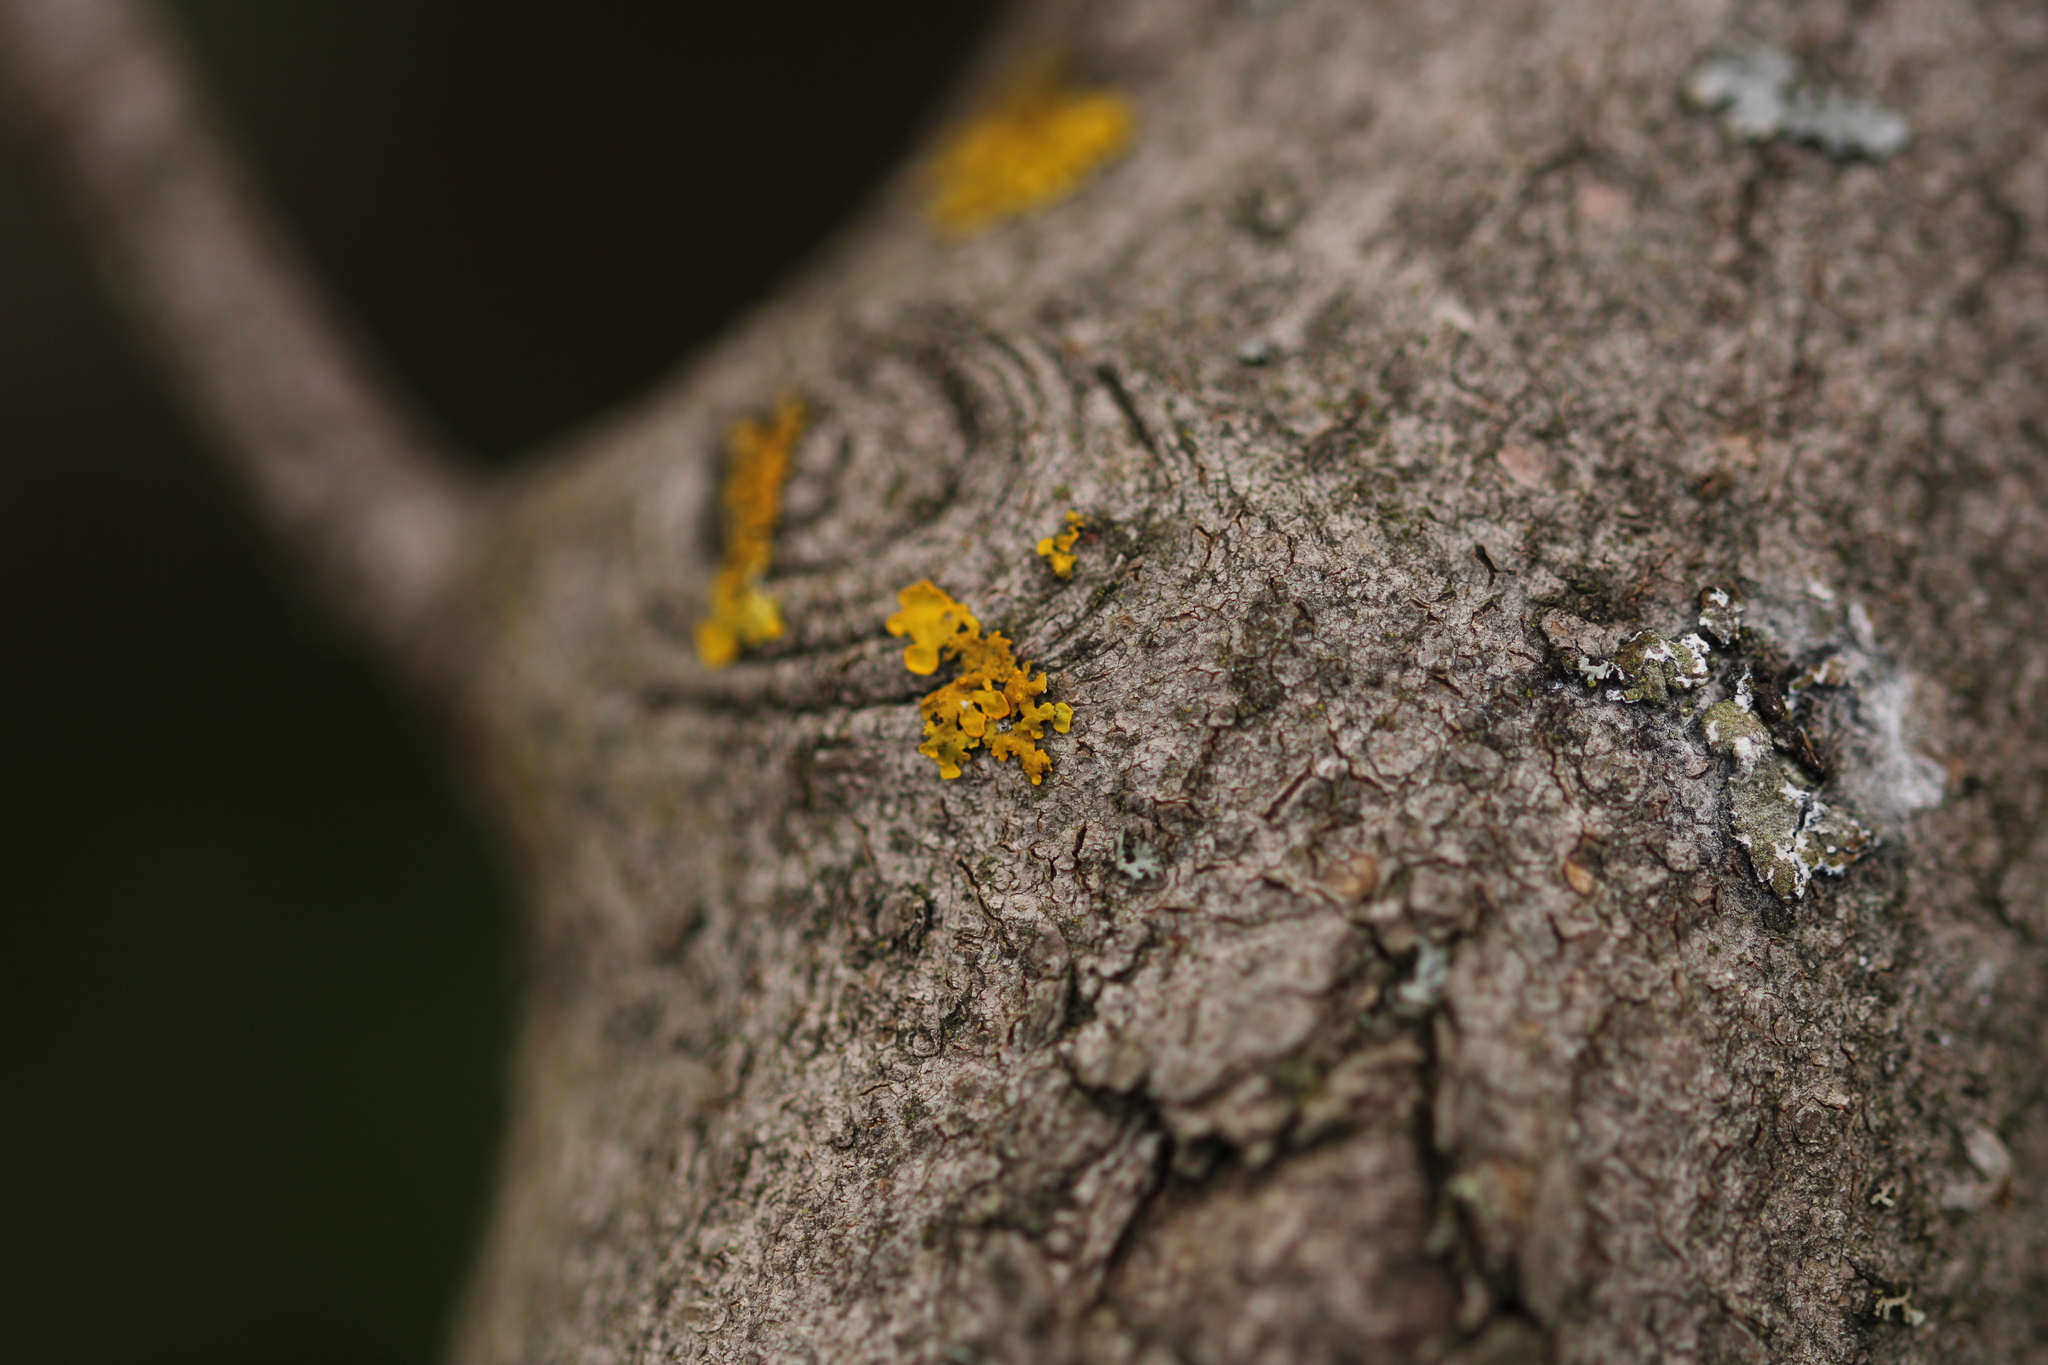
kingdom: Fungi
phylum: Ascomycota
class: Lecanoromycetes
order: Teloschistales
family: Teloschistaceae
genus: Xanthoria
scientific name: Xanthoria parietina
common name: Common orange lichen
